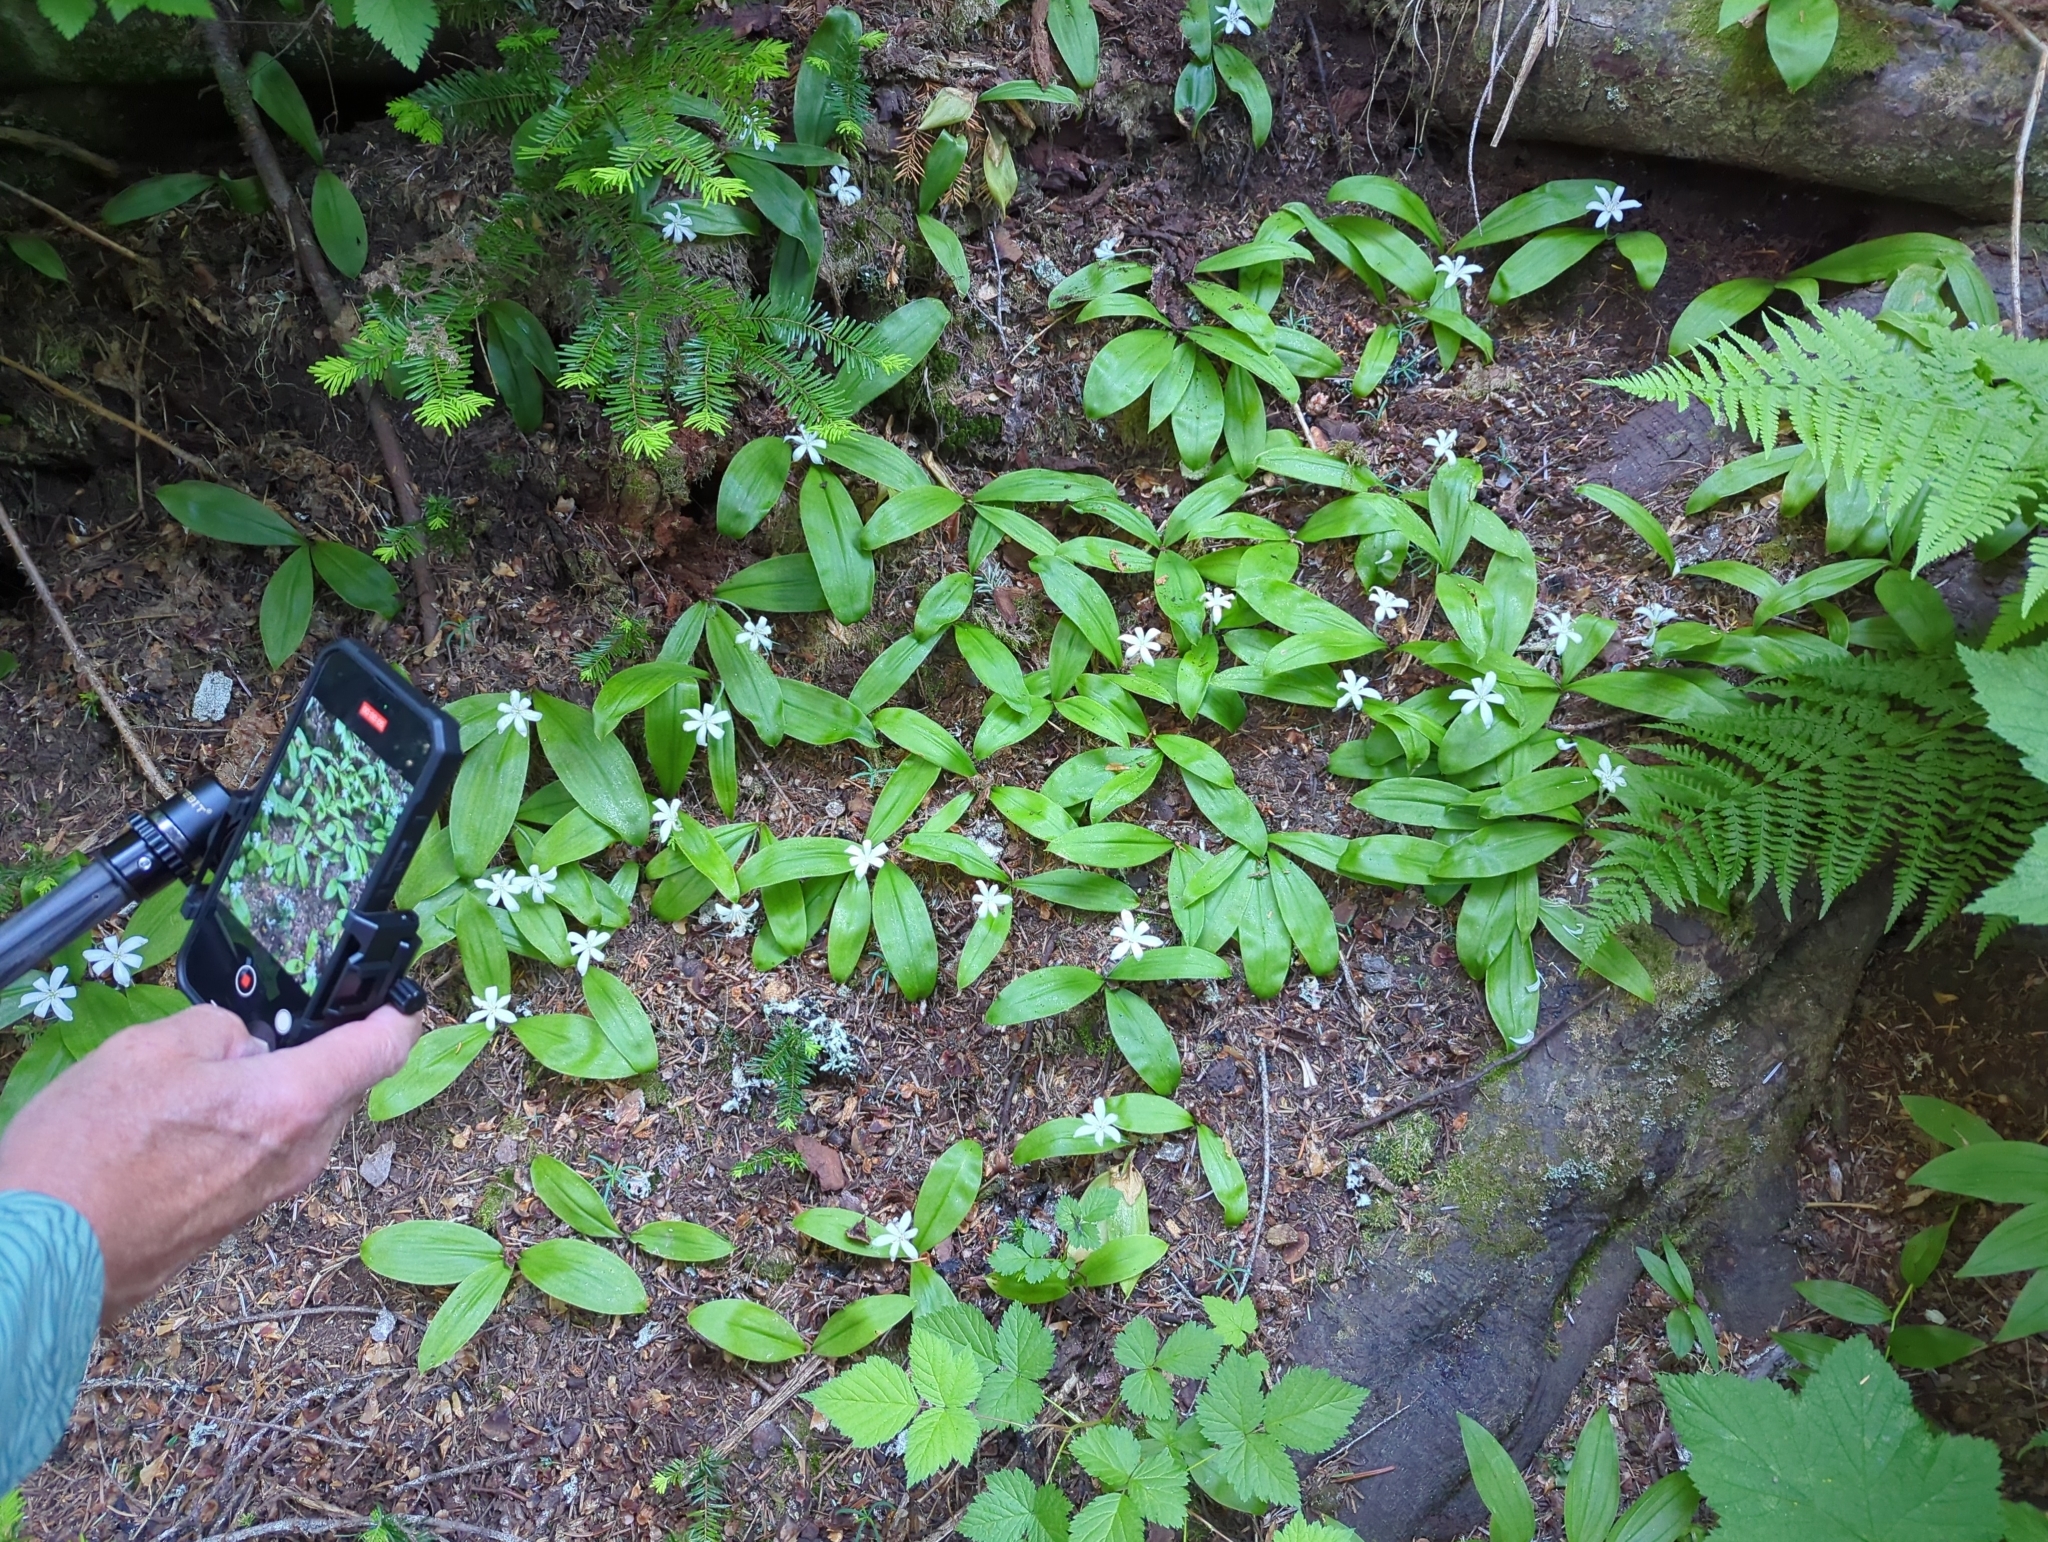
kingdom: Plantae
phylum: Tracheophyta
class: Liliopsida
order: Liliales
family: Liliaceae
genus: Clintonia
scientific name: Clintonia uniflora
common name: Queen's cup
